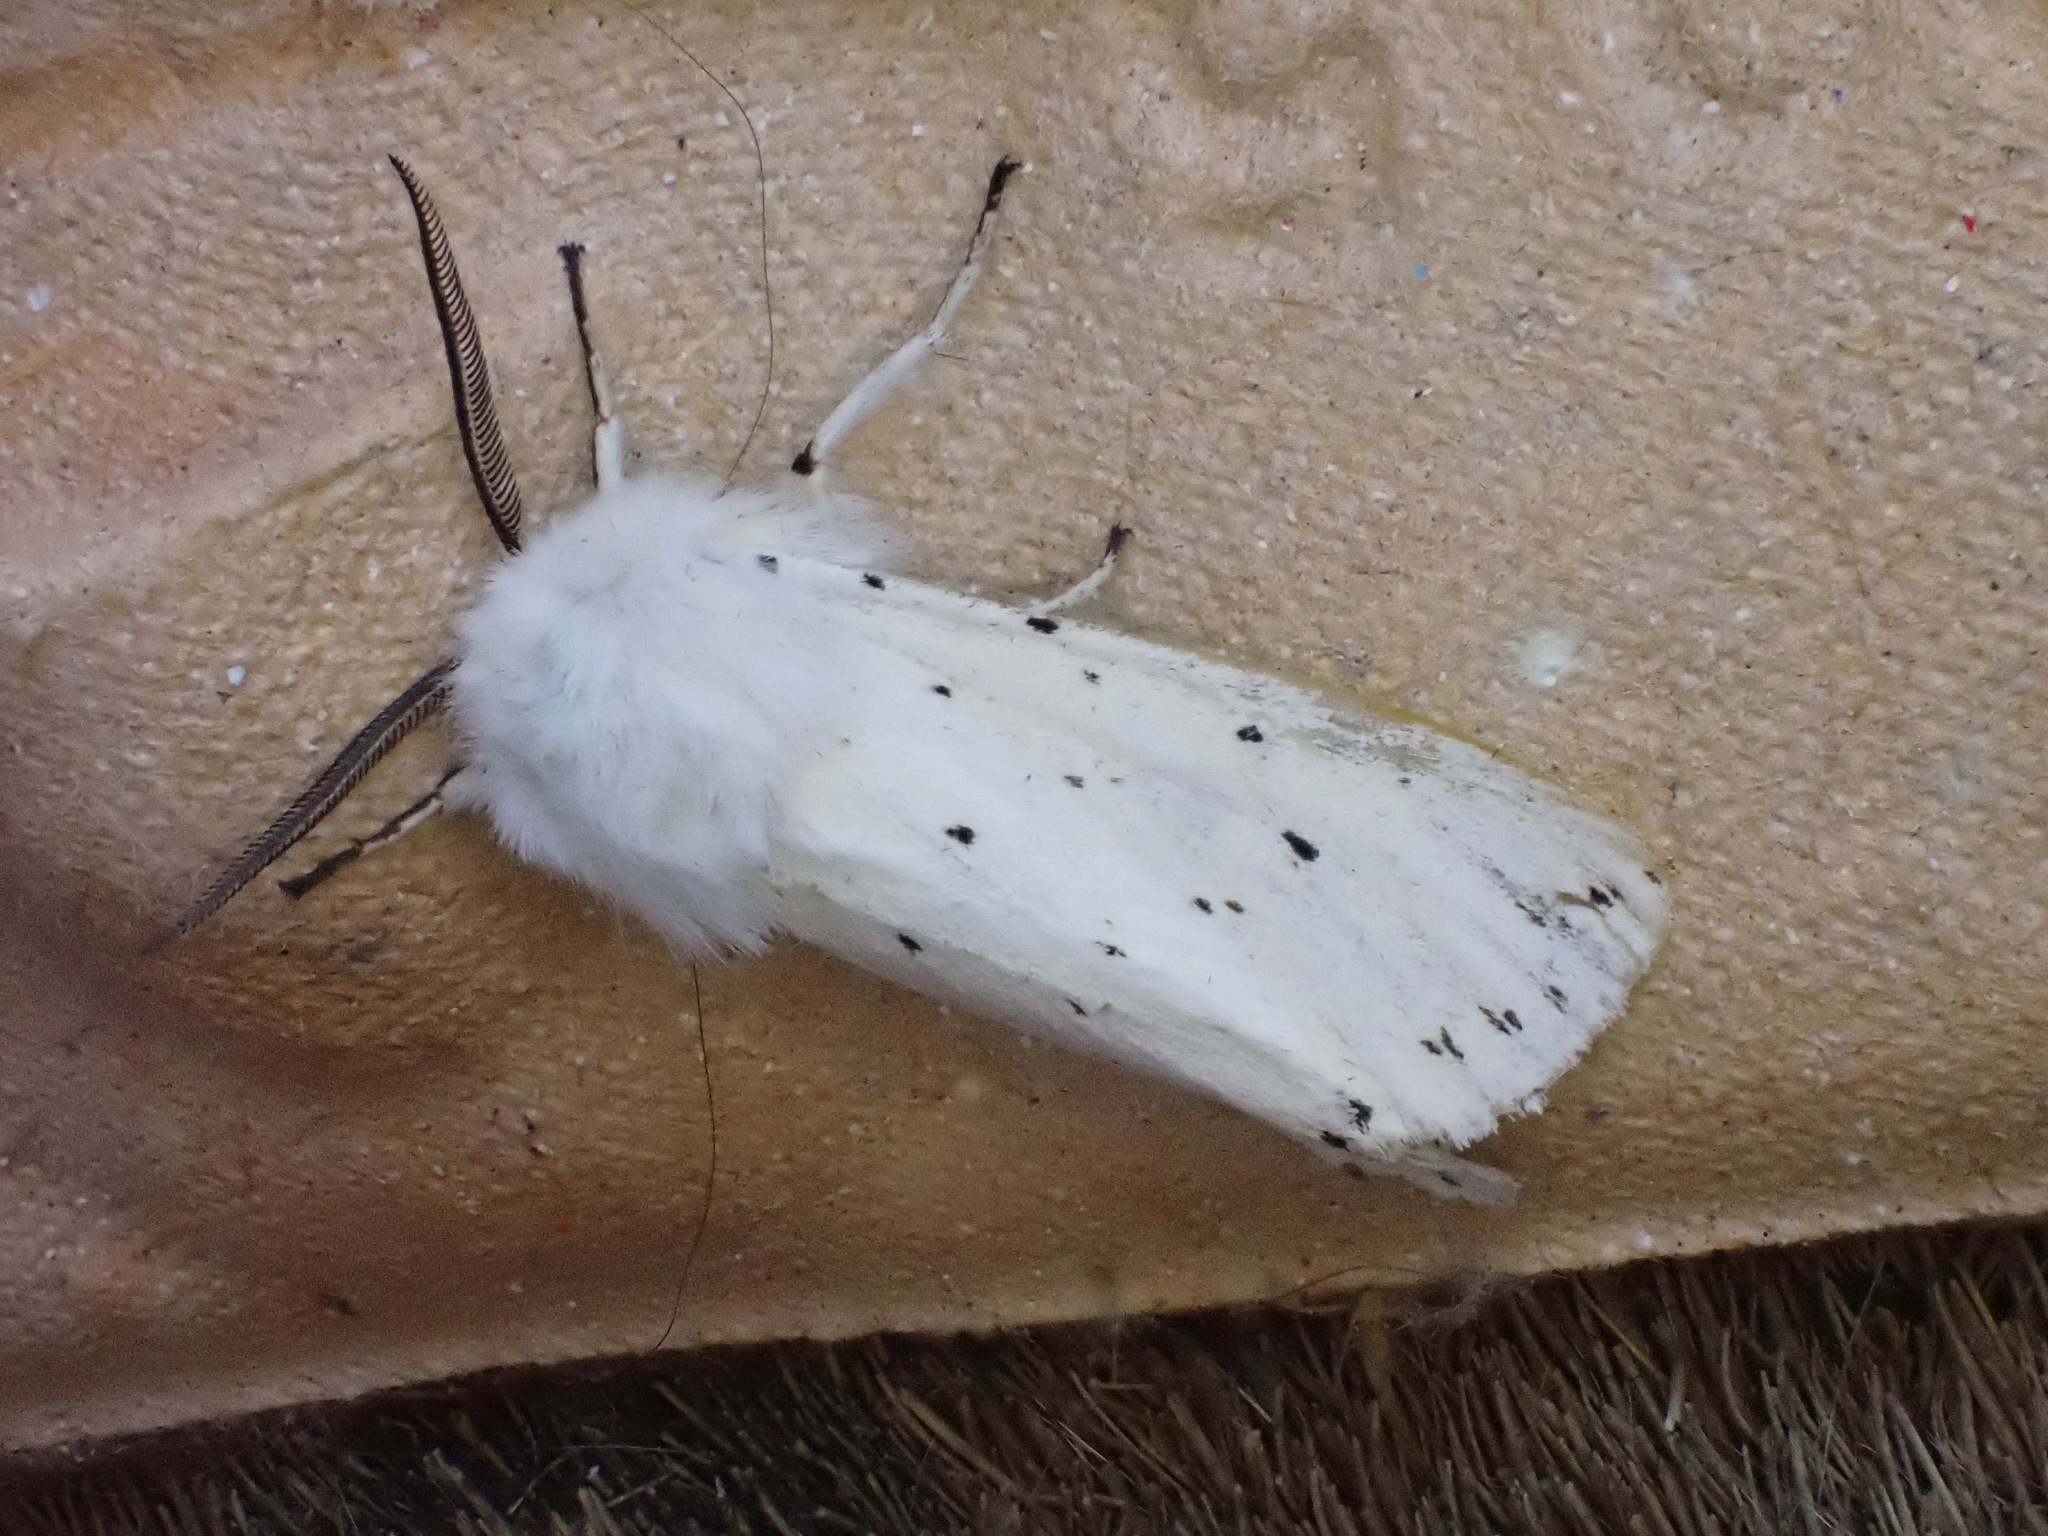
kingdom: Animalia
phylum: Arthropoda
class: Insecta
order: Lepidoptera
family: Erebidae
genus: Spilosoma
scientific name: Spilosoma lubricipeda
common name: White ermine
